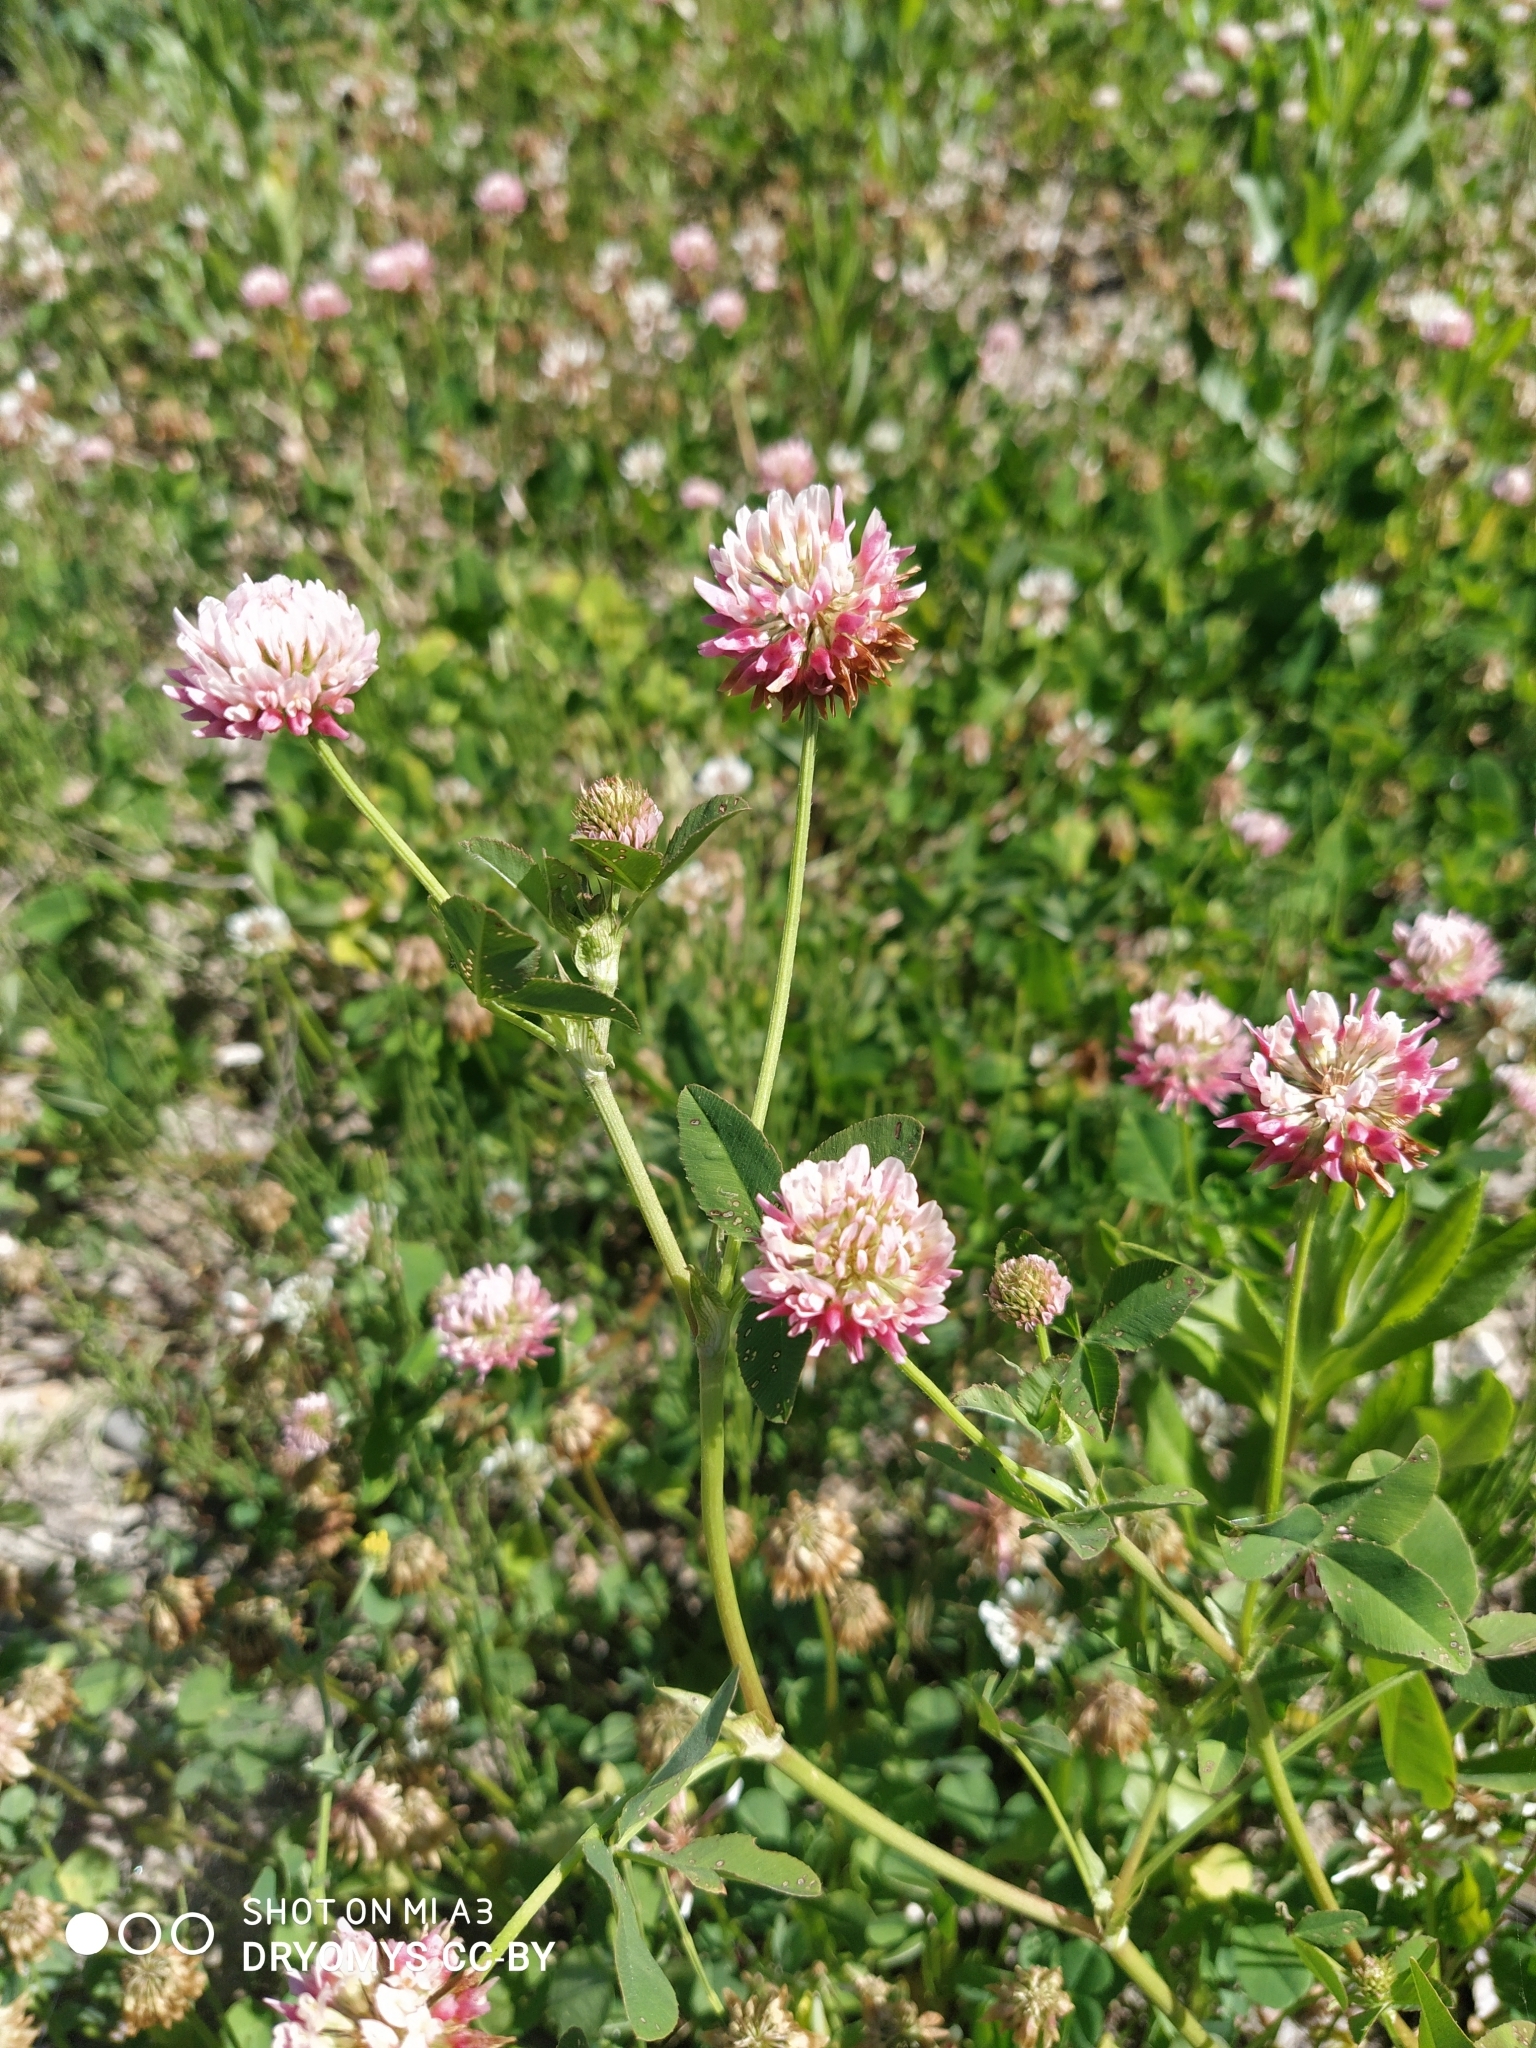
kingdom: Plantae
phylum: Tracheophyta
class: Magnoliopsida
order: Fabales
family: Fabaceae
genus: Trifolium
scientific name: Trifolium hybridum
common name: Alsike clover
